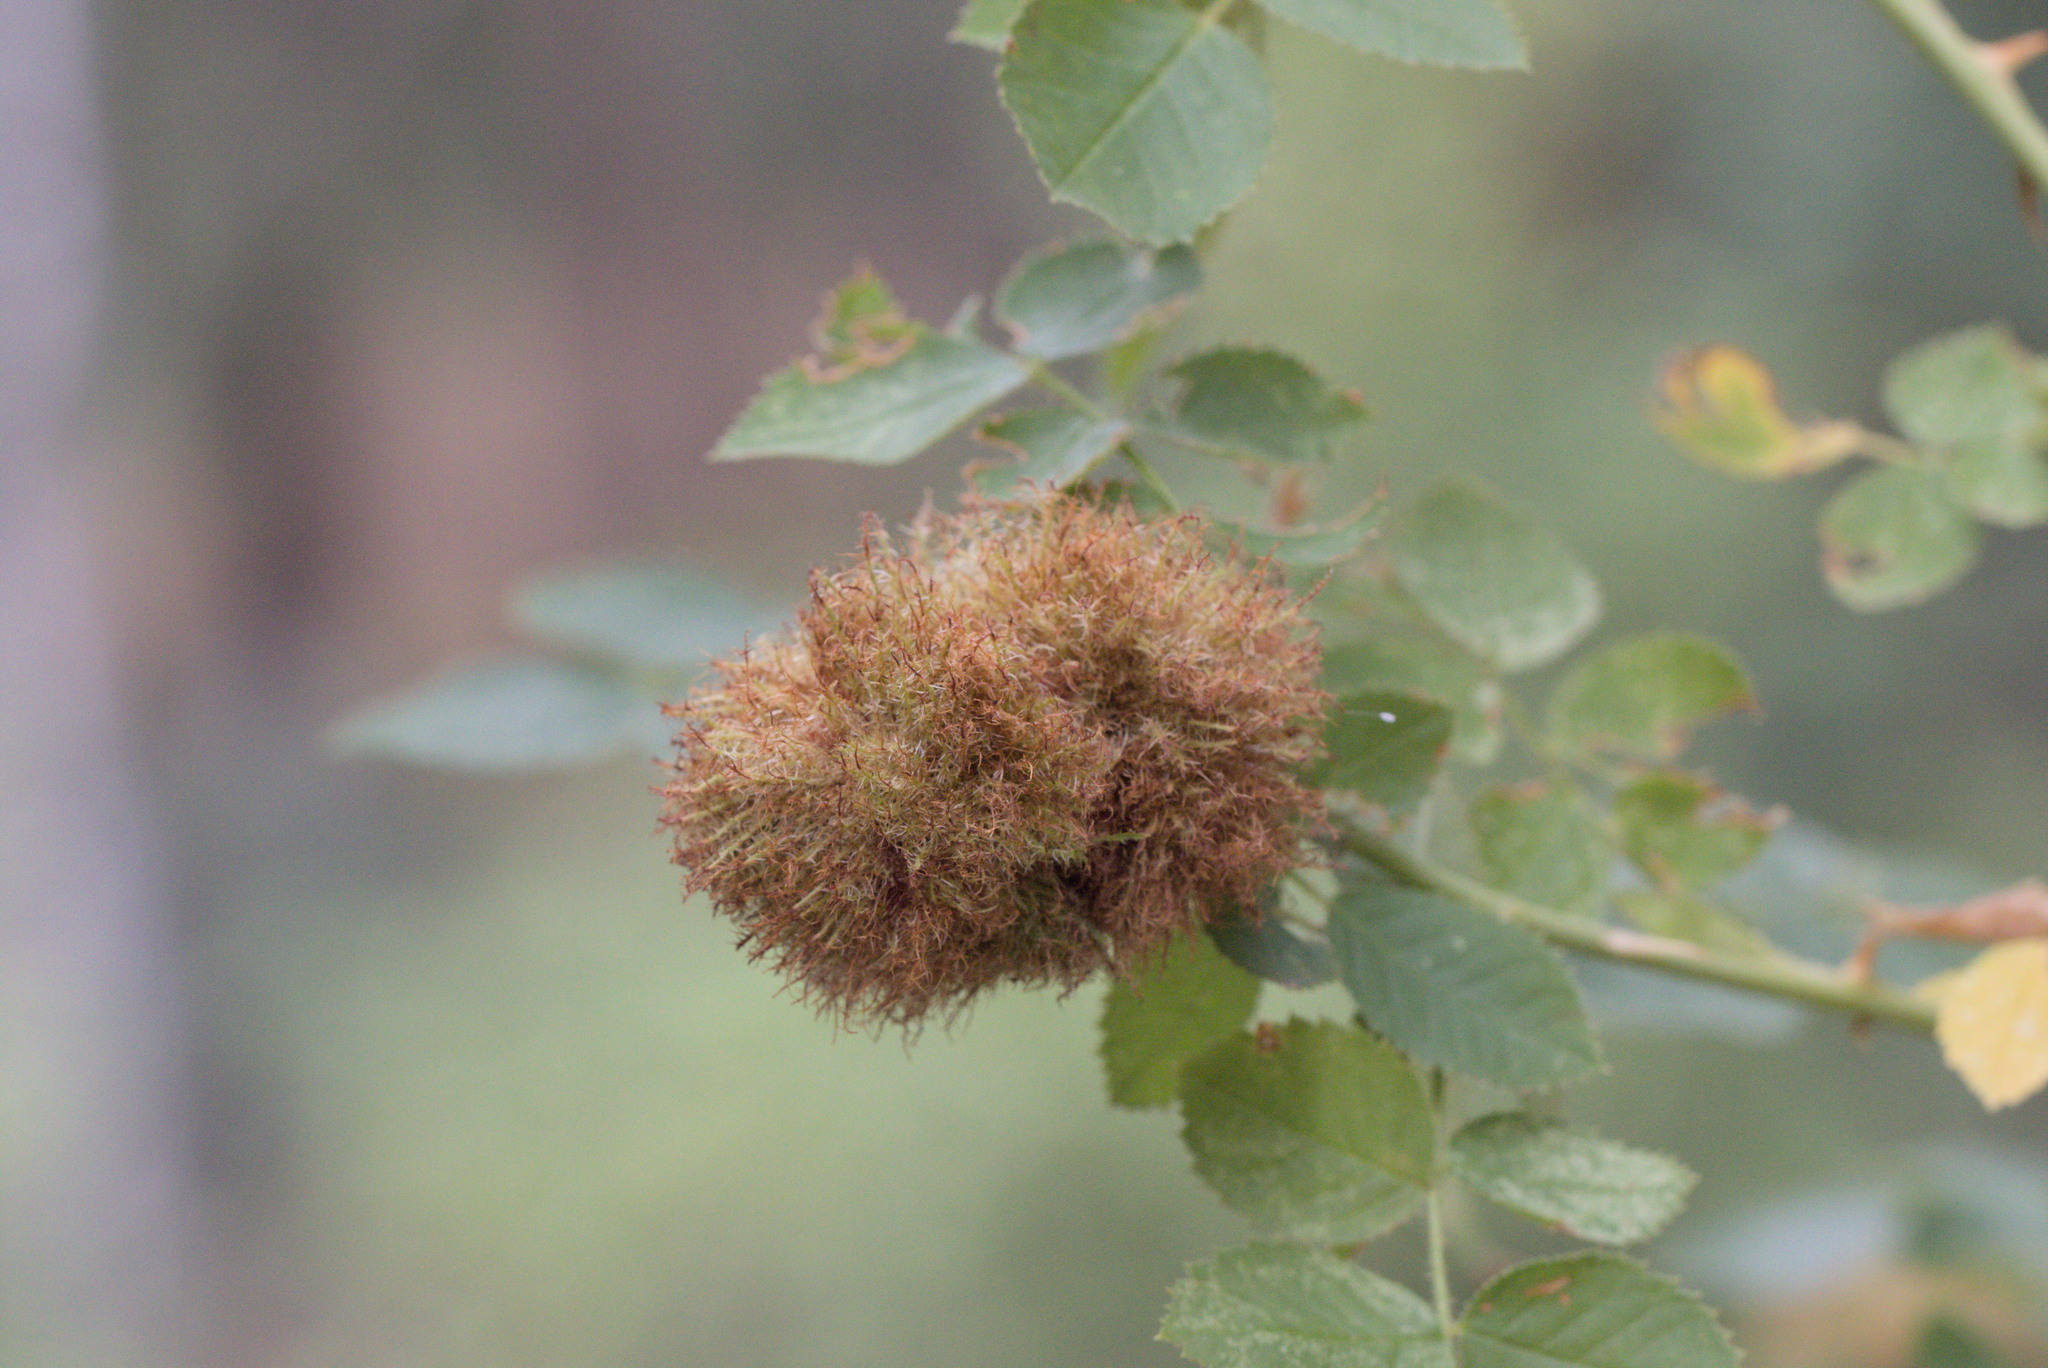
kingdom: Animalia
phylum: Arthropoda
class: Insecta
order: Hymenoptera
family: Cynipidae
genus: Diplolepis
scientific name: Diplolepis rosae
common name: Bedeguar gall
